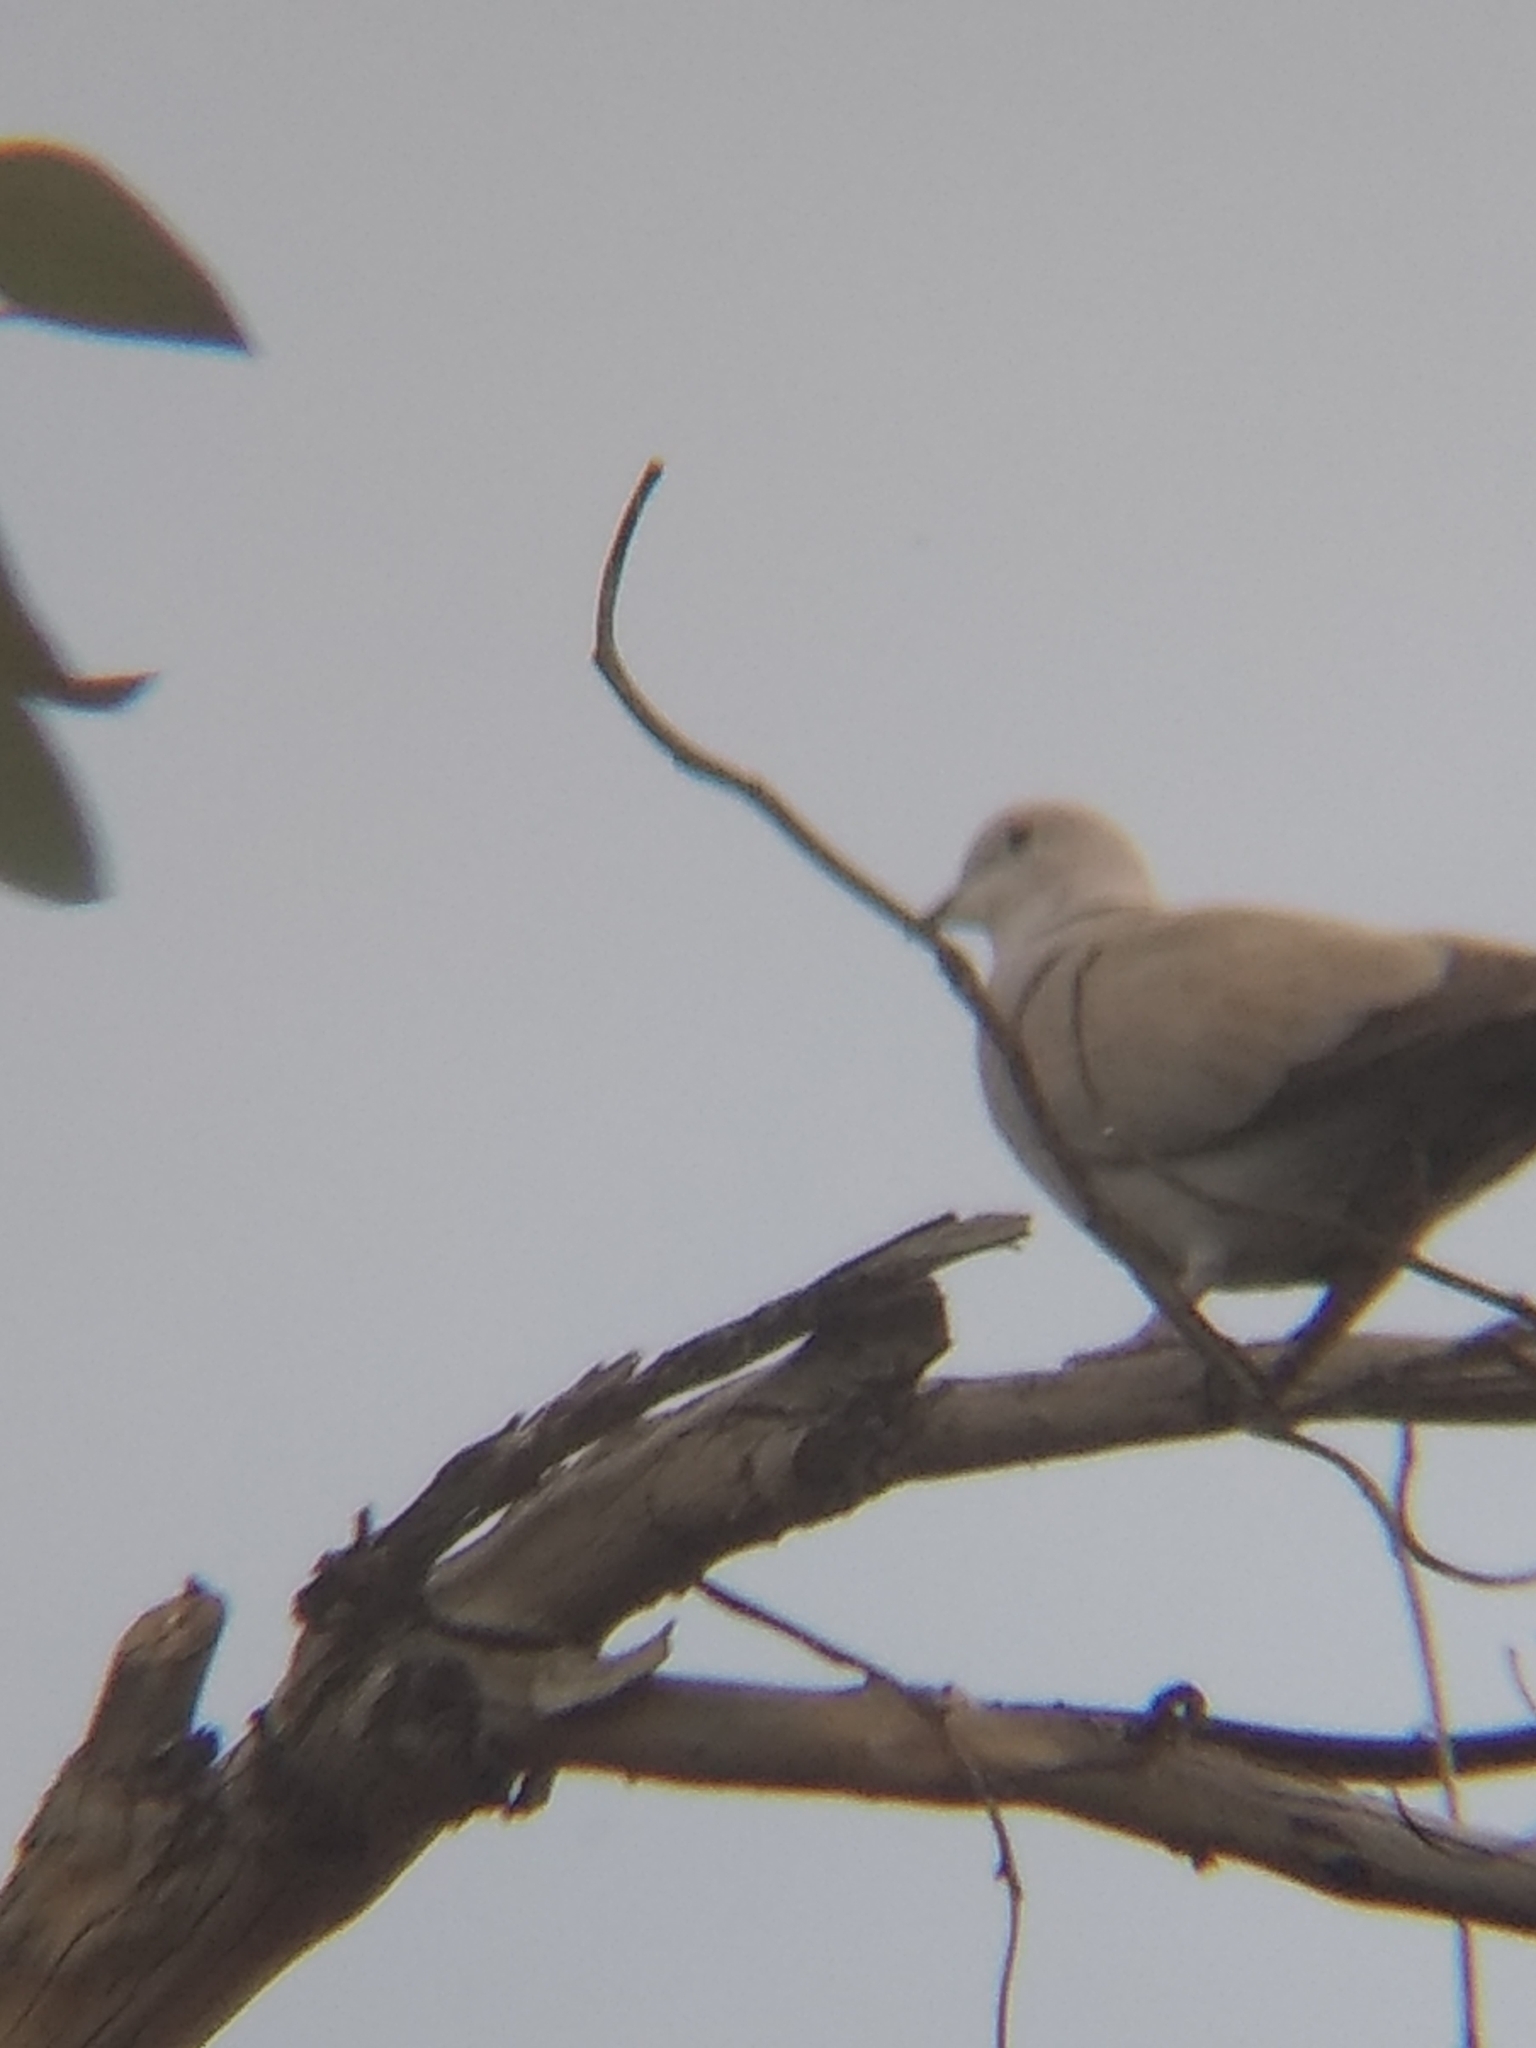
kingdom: Animalia
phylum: Chordata
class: Aves
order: Columbiformes
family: Columbidae
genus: Streptopelia
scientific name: Streptopelia decaocto
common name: Eurasian collared dove
